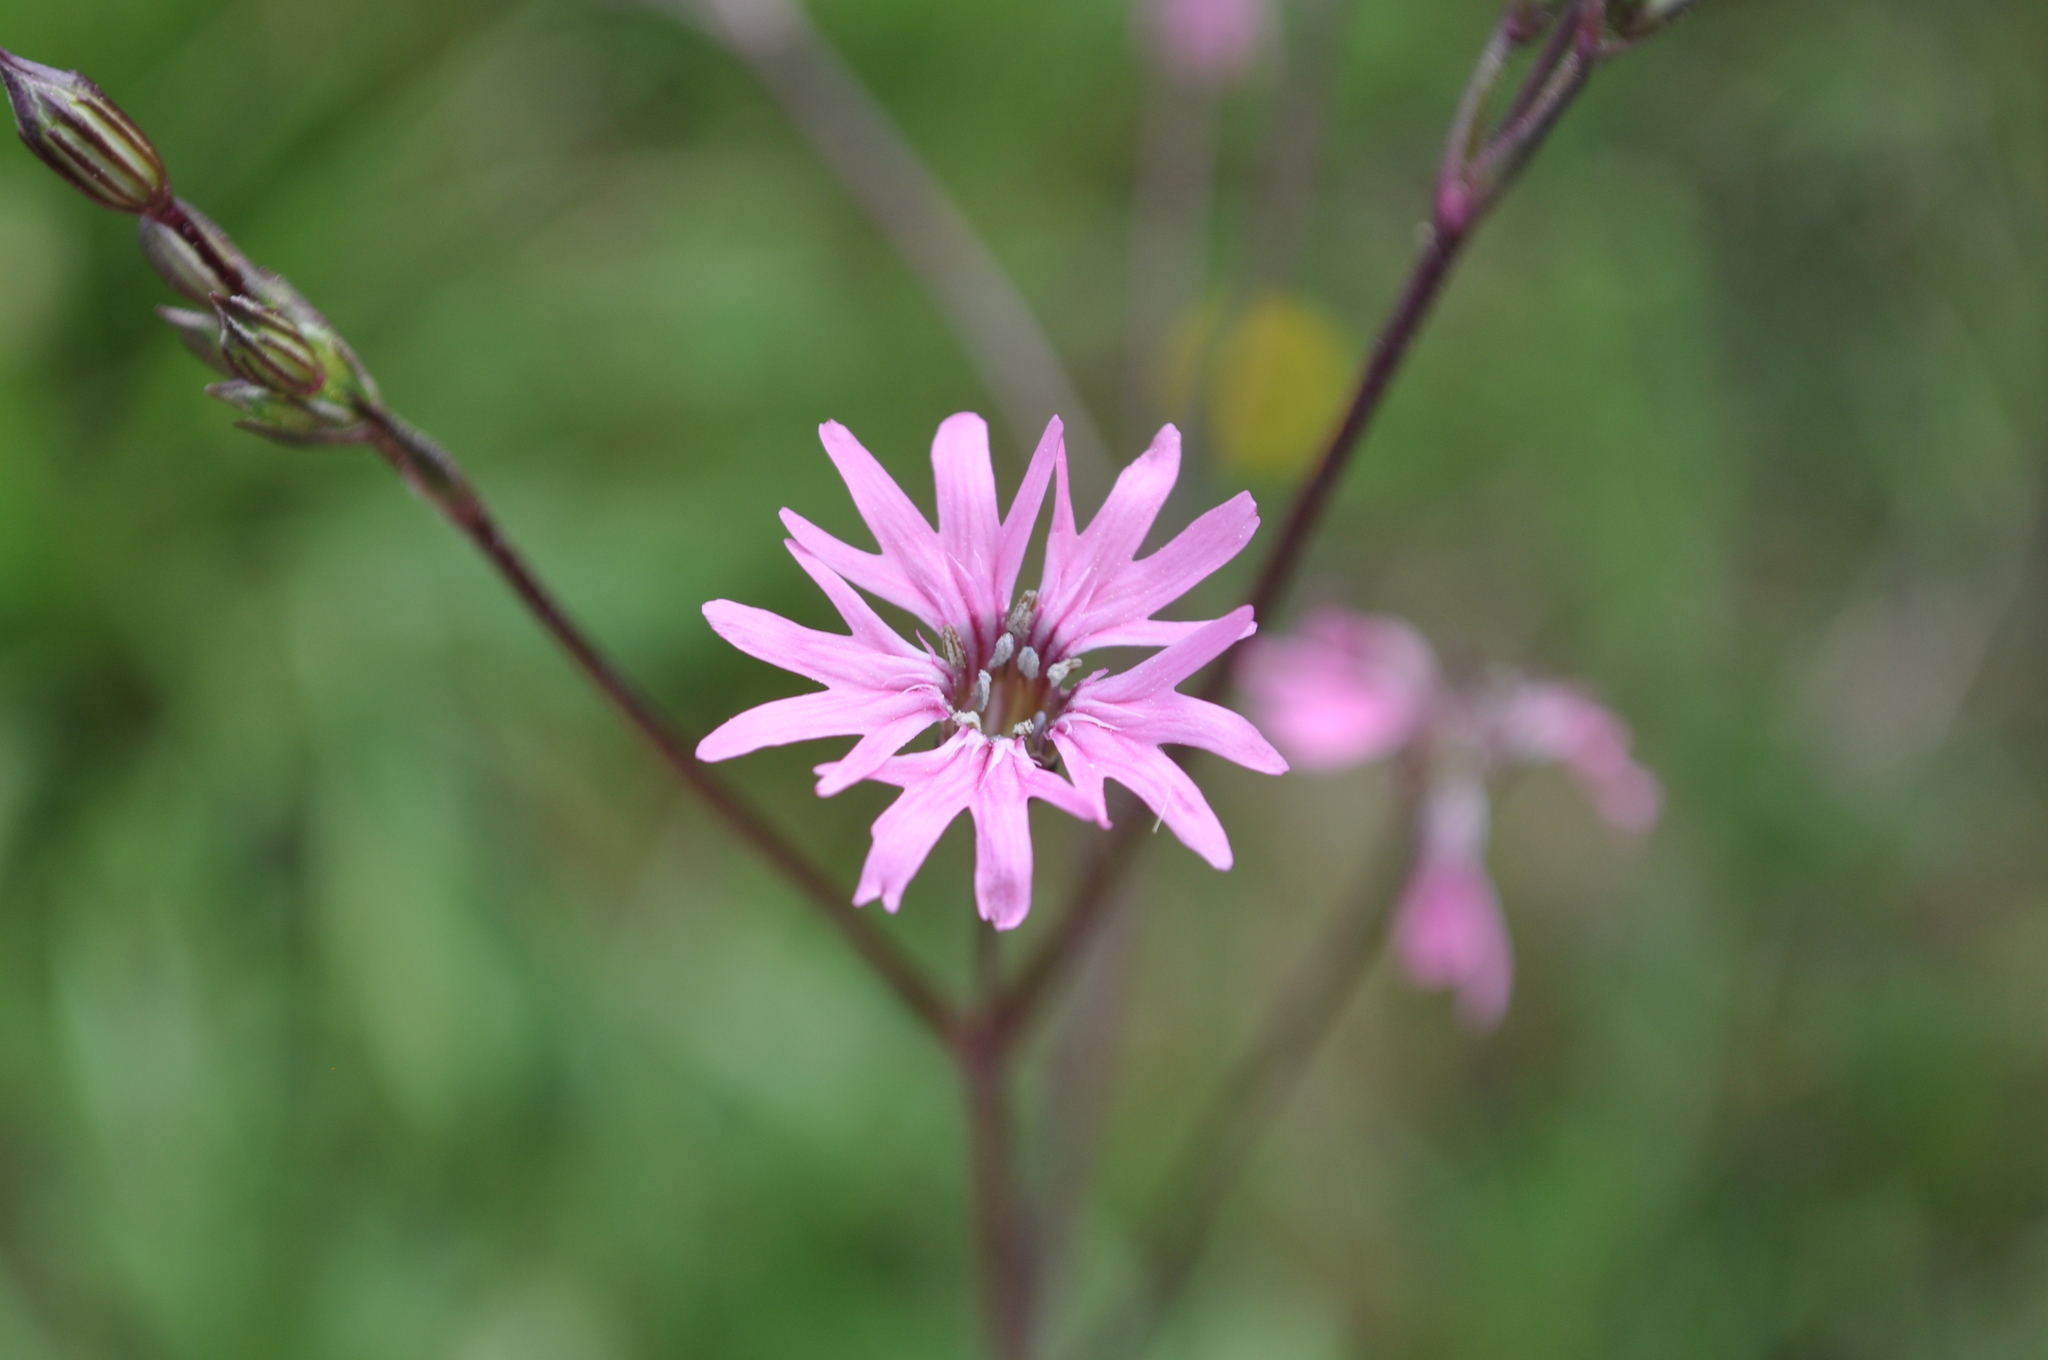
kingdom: Plantae
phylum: Tracheophyta
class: Magnoliopsida
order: Caryophyllales
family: Caryophyllaceae
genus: Silene
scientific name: Silene flos-cuculi
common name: Ragged-robin
